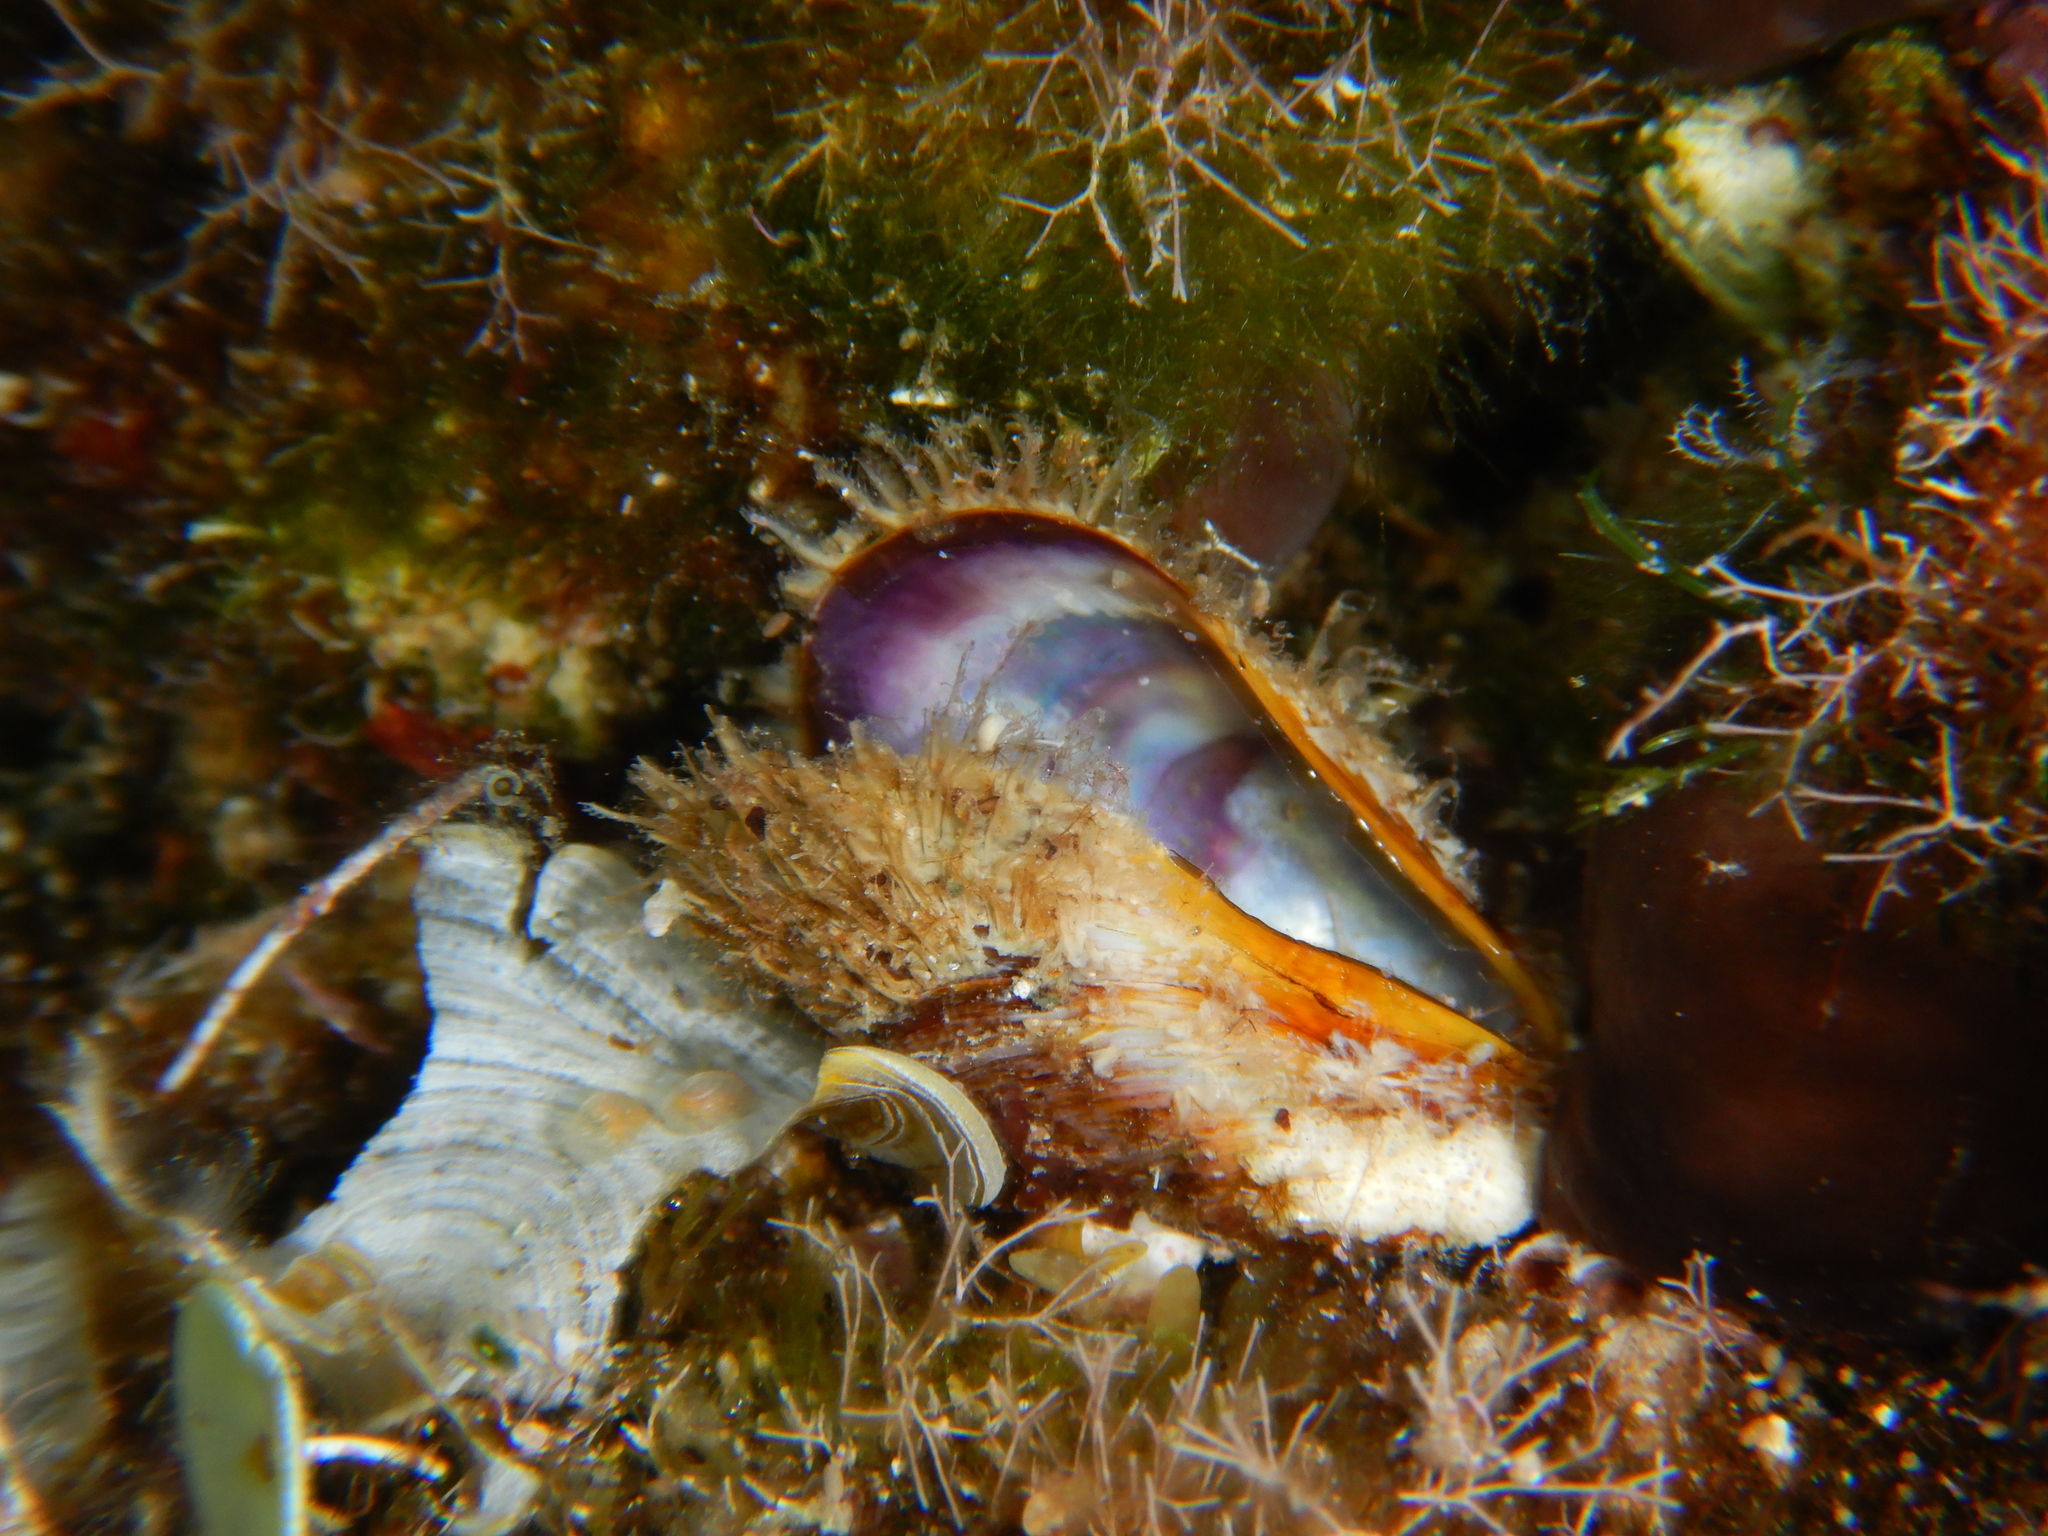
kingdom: Animalia
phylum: Mollusca
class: Bivalvia
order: Mytilida
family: Mytilidae
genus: Modiolus
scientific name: Modiolus barbatus
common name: Bearded mussel
